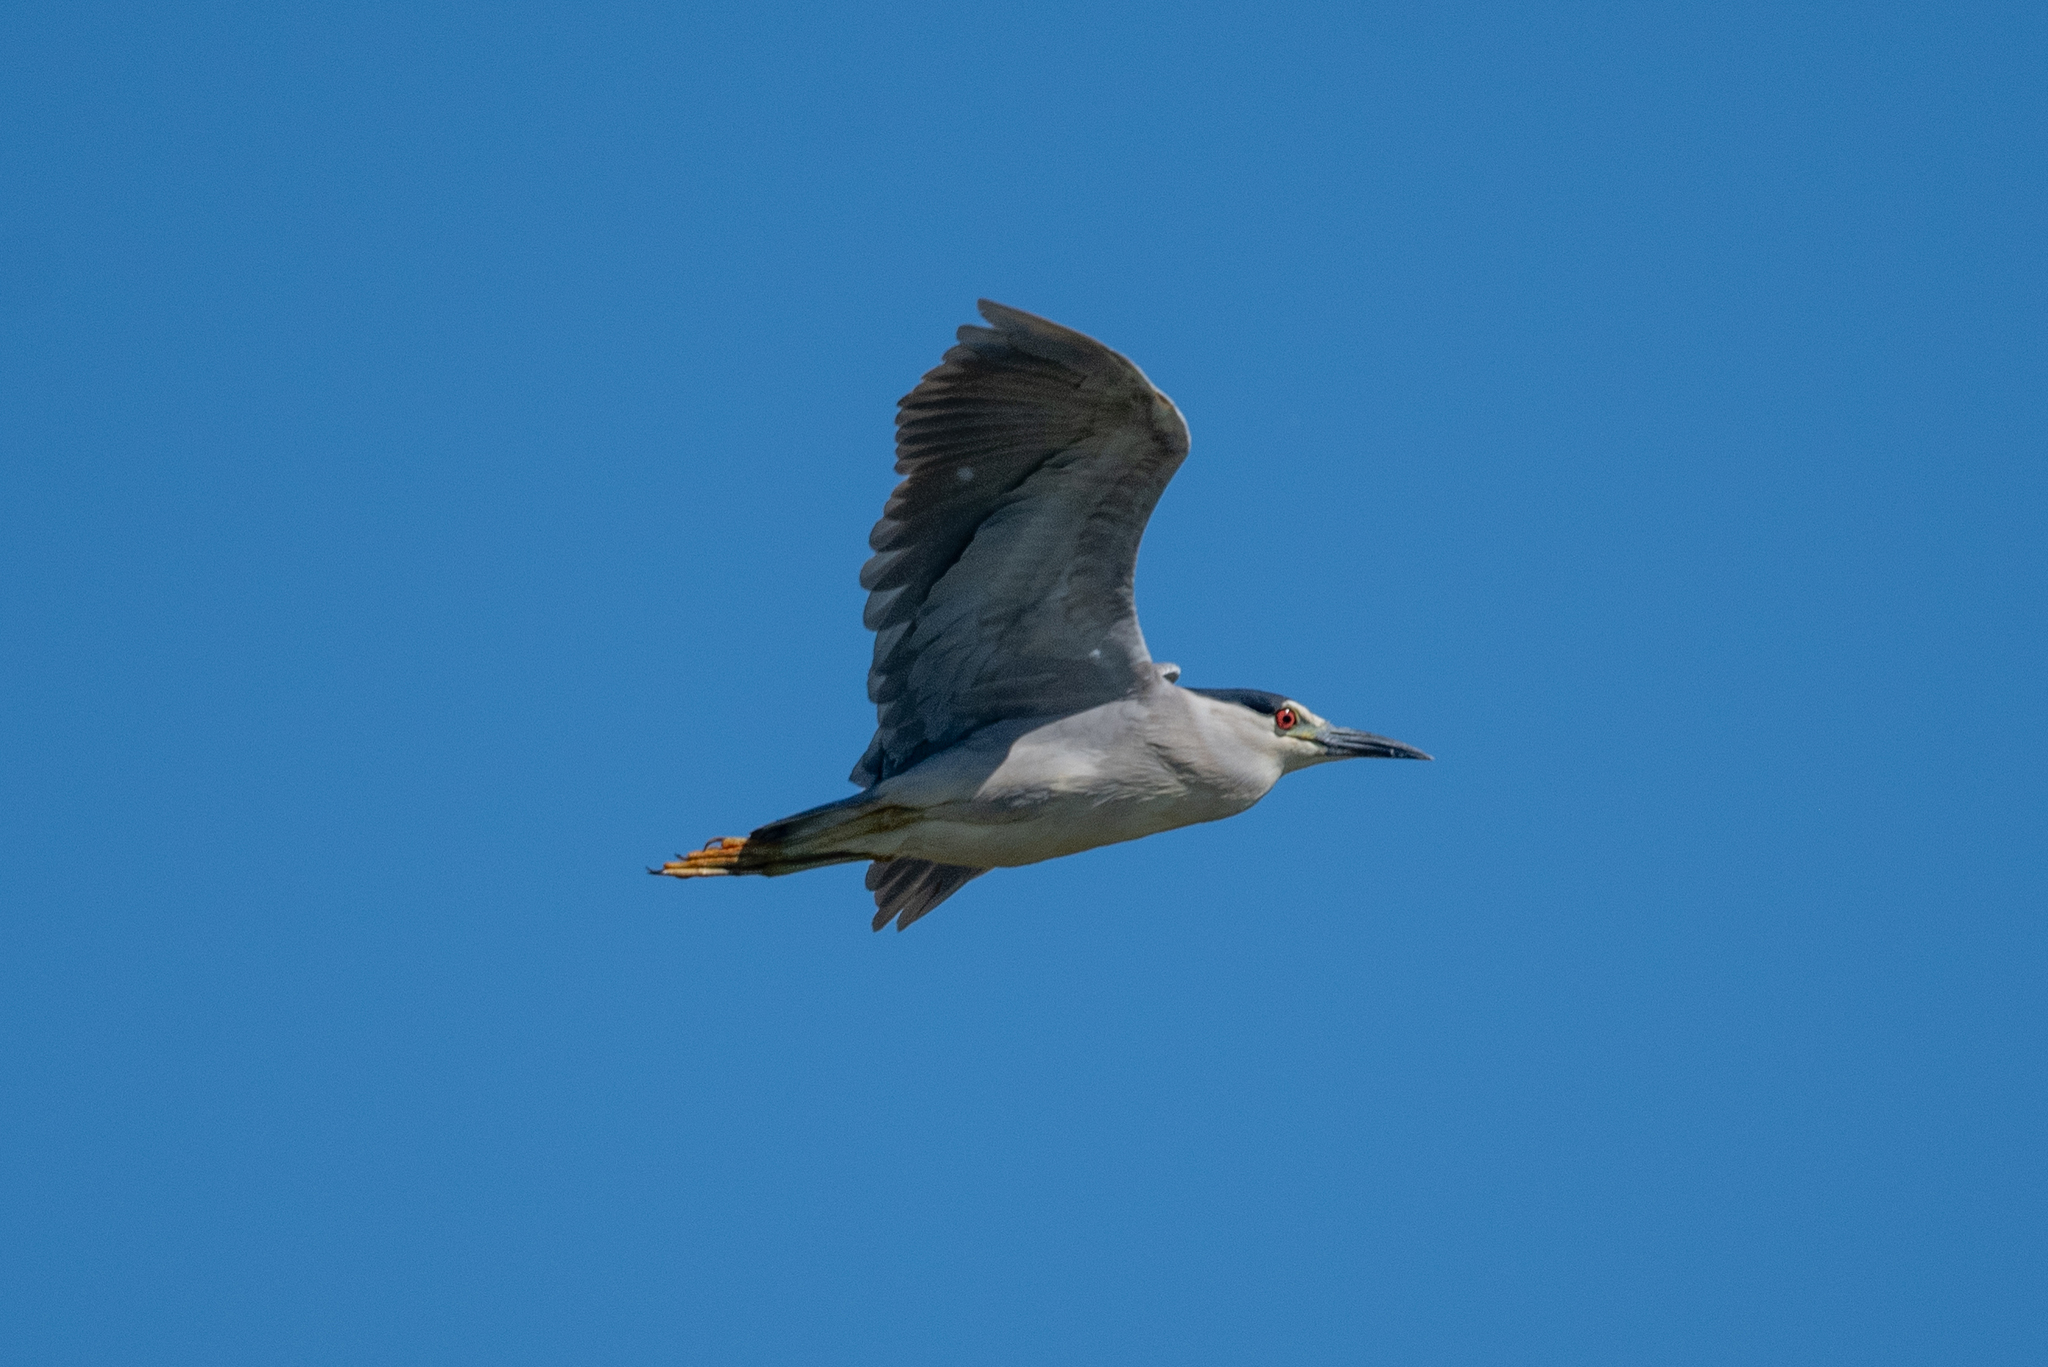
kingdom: Animalia
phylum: Chordata
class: Aves
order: Pelecaniformes
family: Ardeidae
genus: Nycticorax
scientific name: Nycticorax nycticorax
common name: Black-crowned night heron
